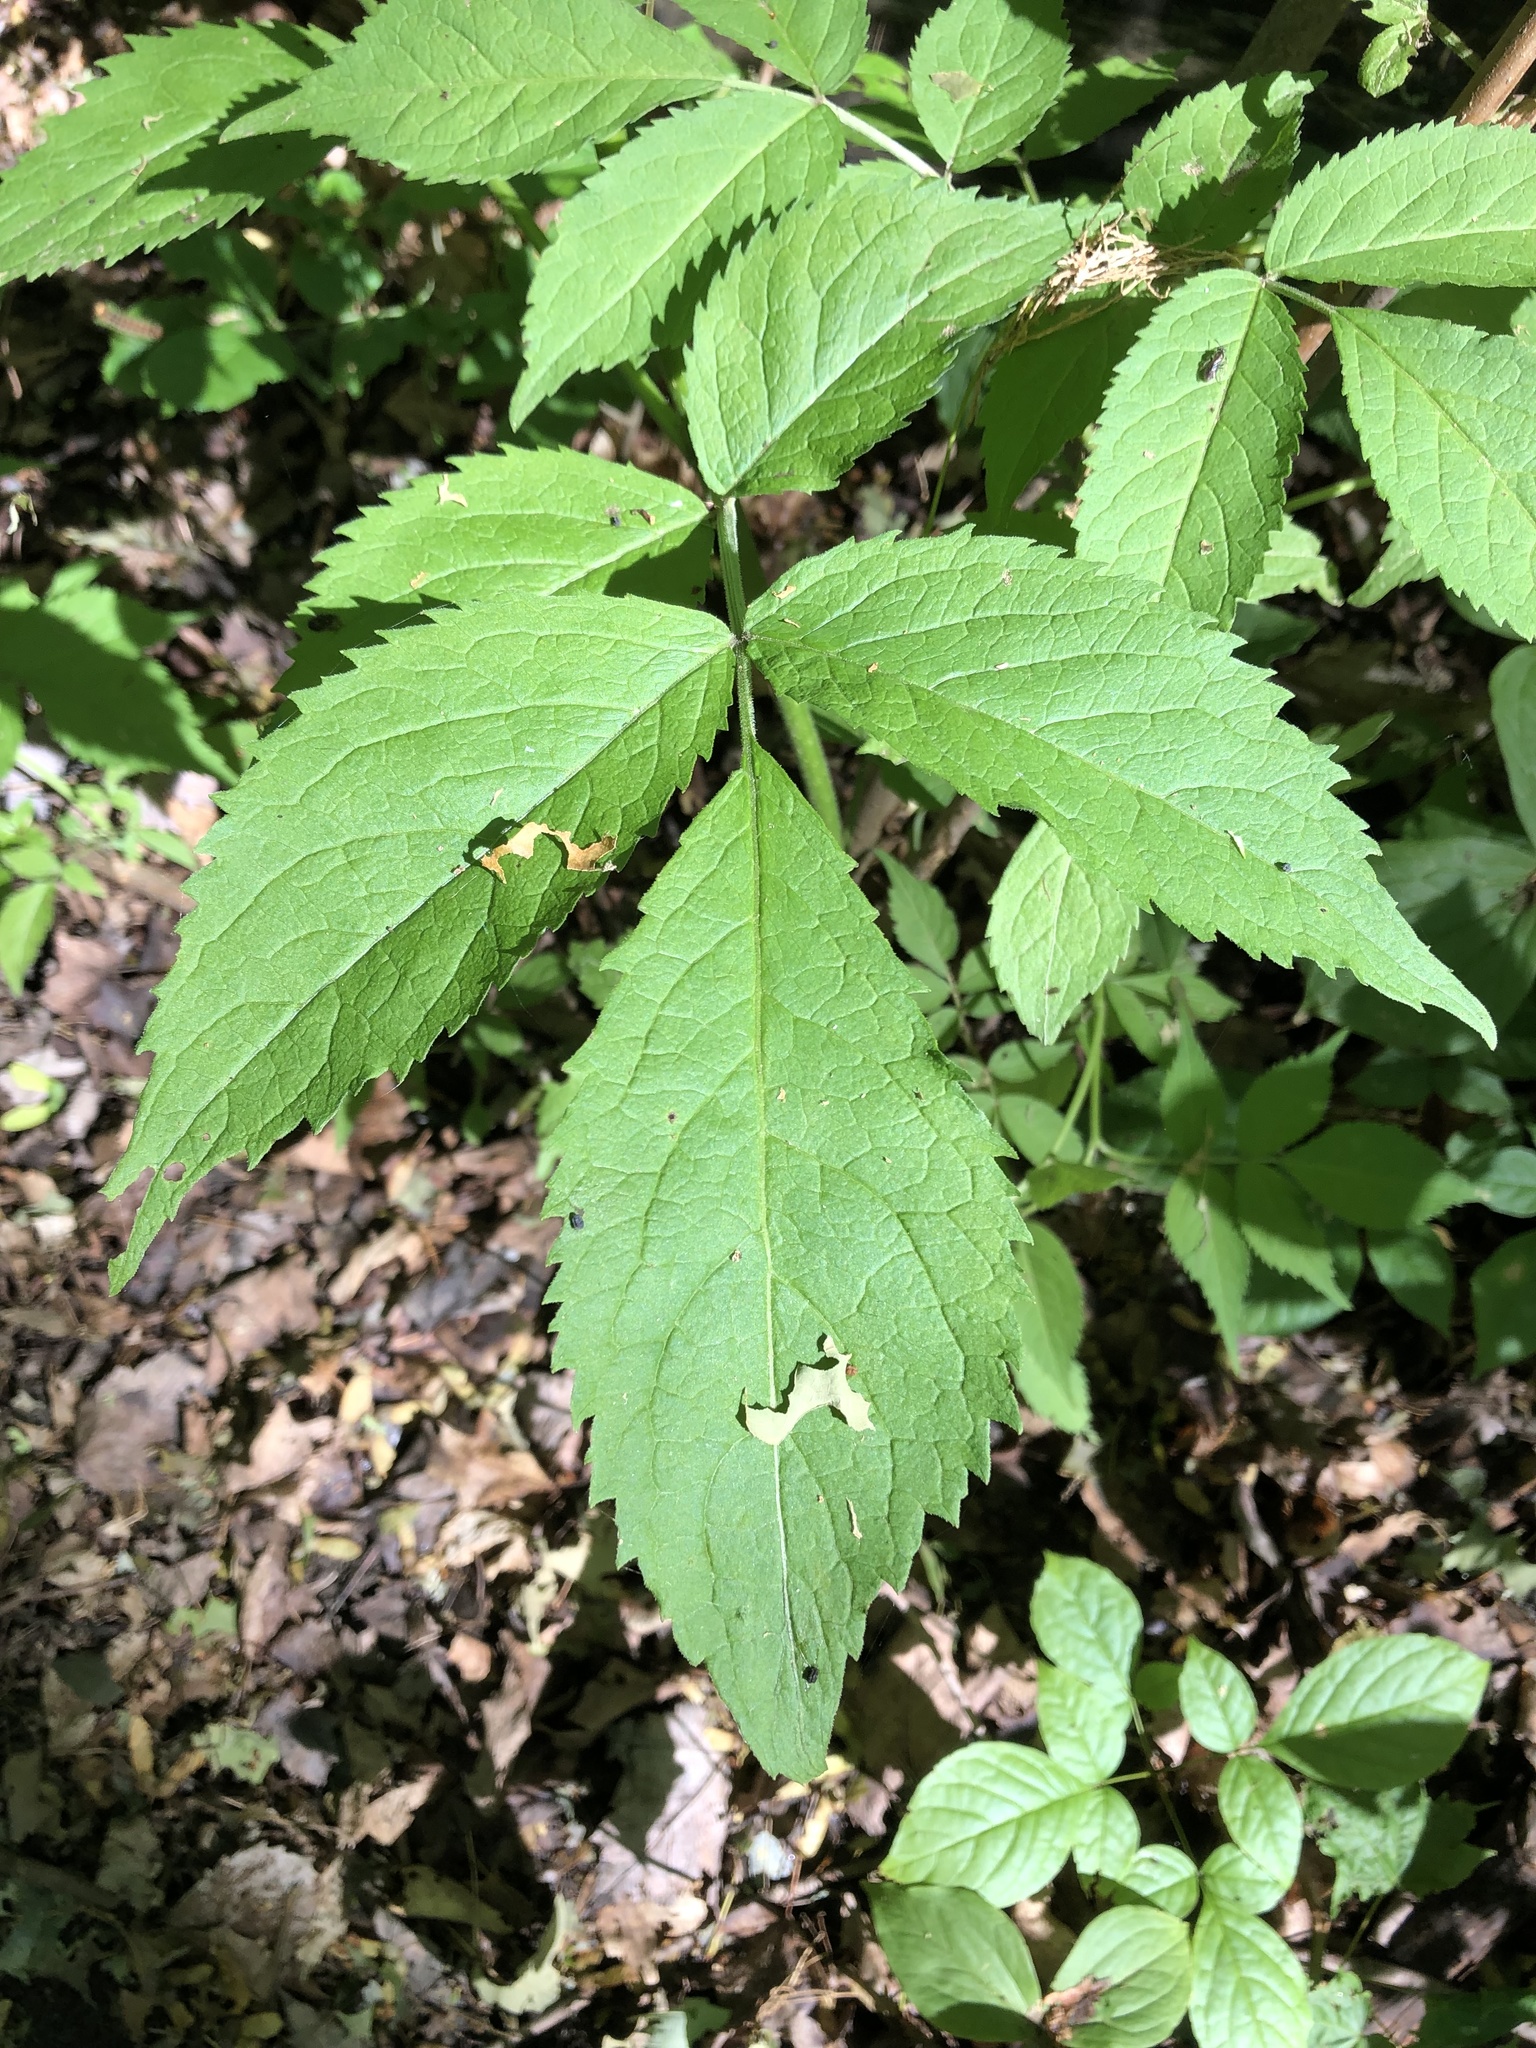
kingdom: Plantae
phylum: Tracheophyta
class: Magnoliopsida
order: Dipsacales
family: Viburnaceae
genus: Sambucus
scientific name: Sambucus racemosa
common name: Red-berried elder
